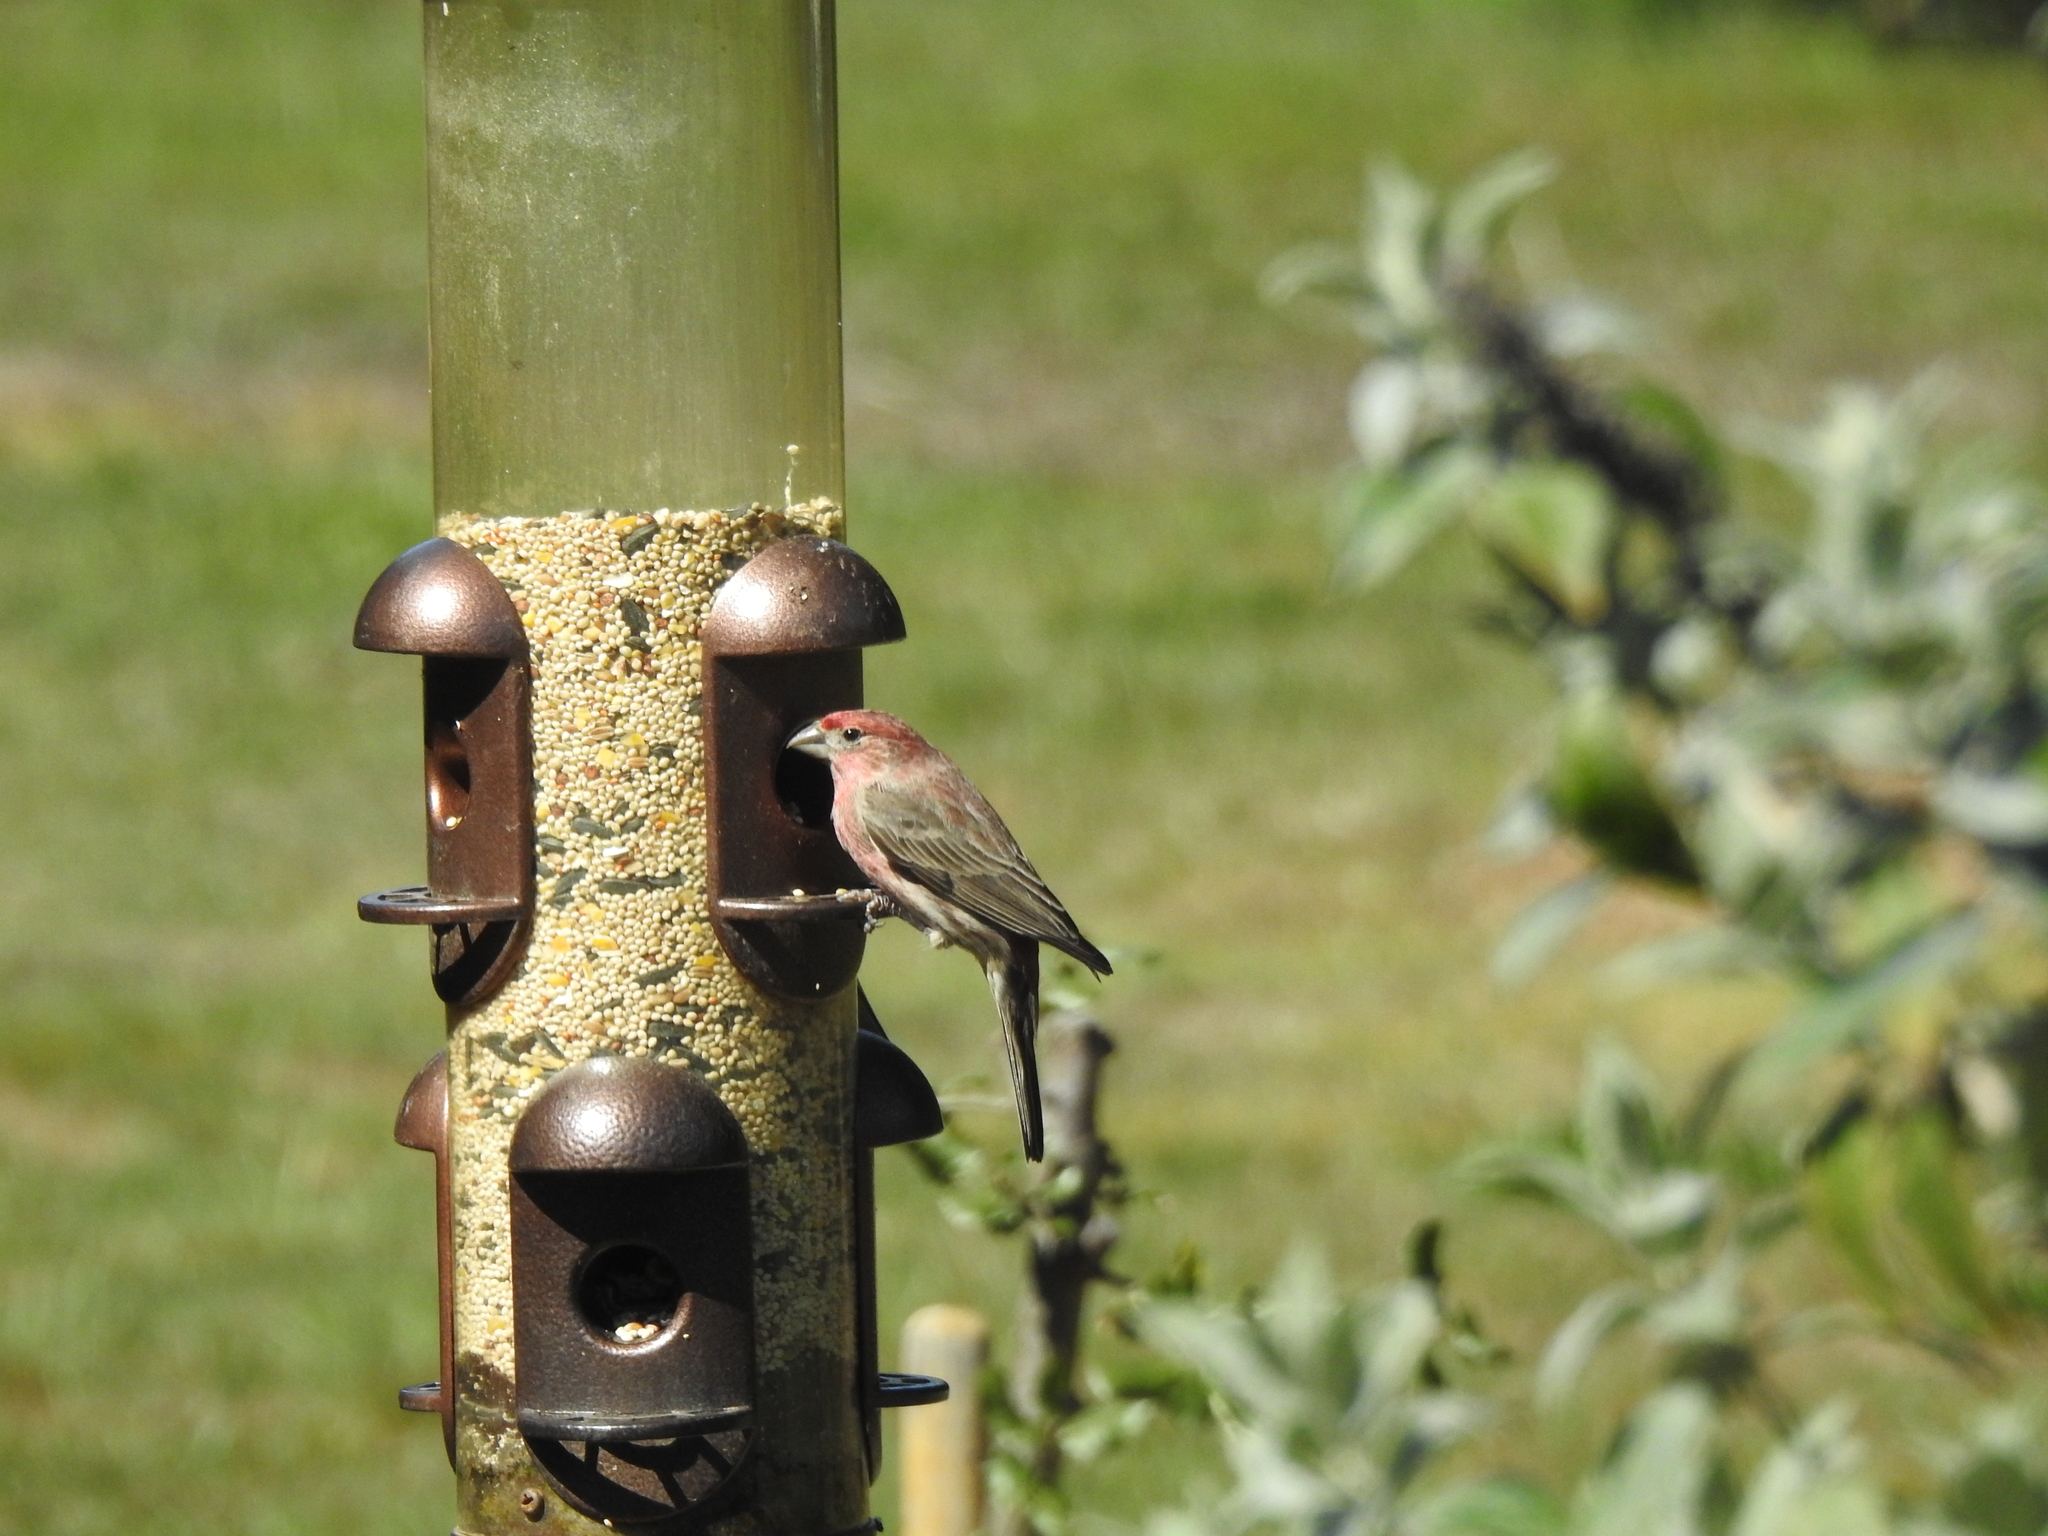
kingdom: Animalia
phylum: Chordata
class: Aves
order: Passeriformes
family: Fringillidae
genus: Haemorhous
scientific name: Haemorhous mexicanus
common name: House finch
